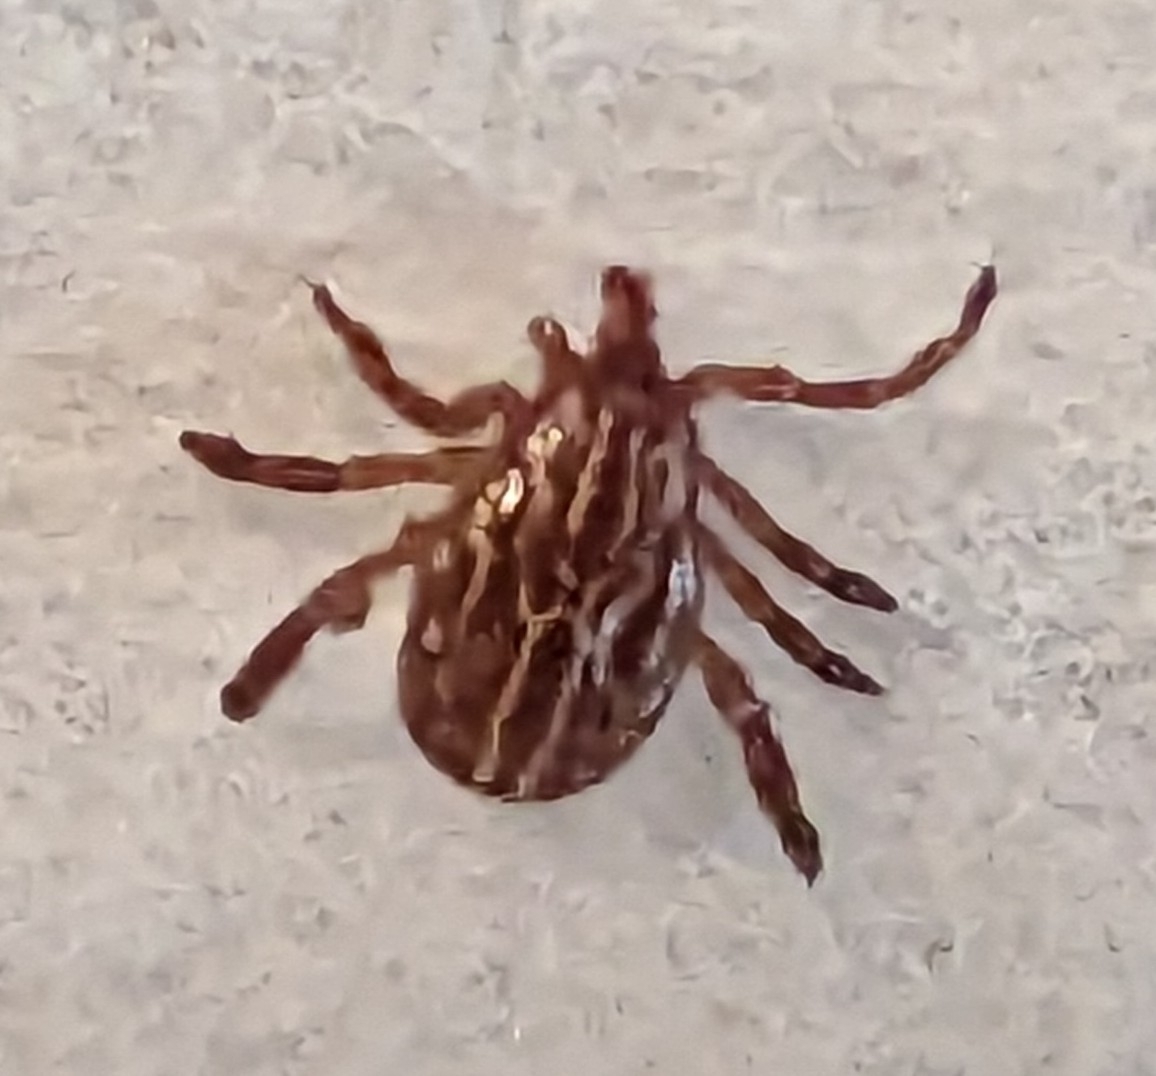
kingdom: Animalia
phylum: Arthropoda
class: Arachnida
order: Ixodida
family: Ixodidae
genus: Amblyomma
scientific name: Amblyomma maculatum
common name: Gulf coast tick
